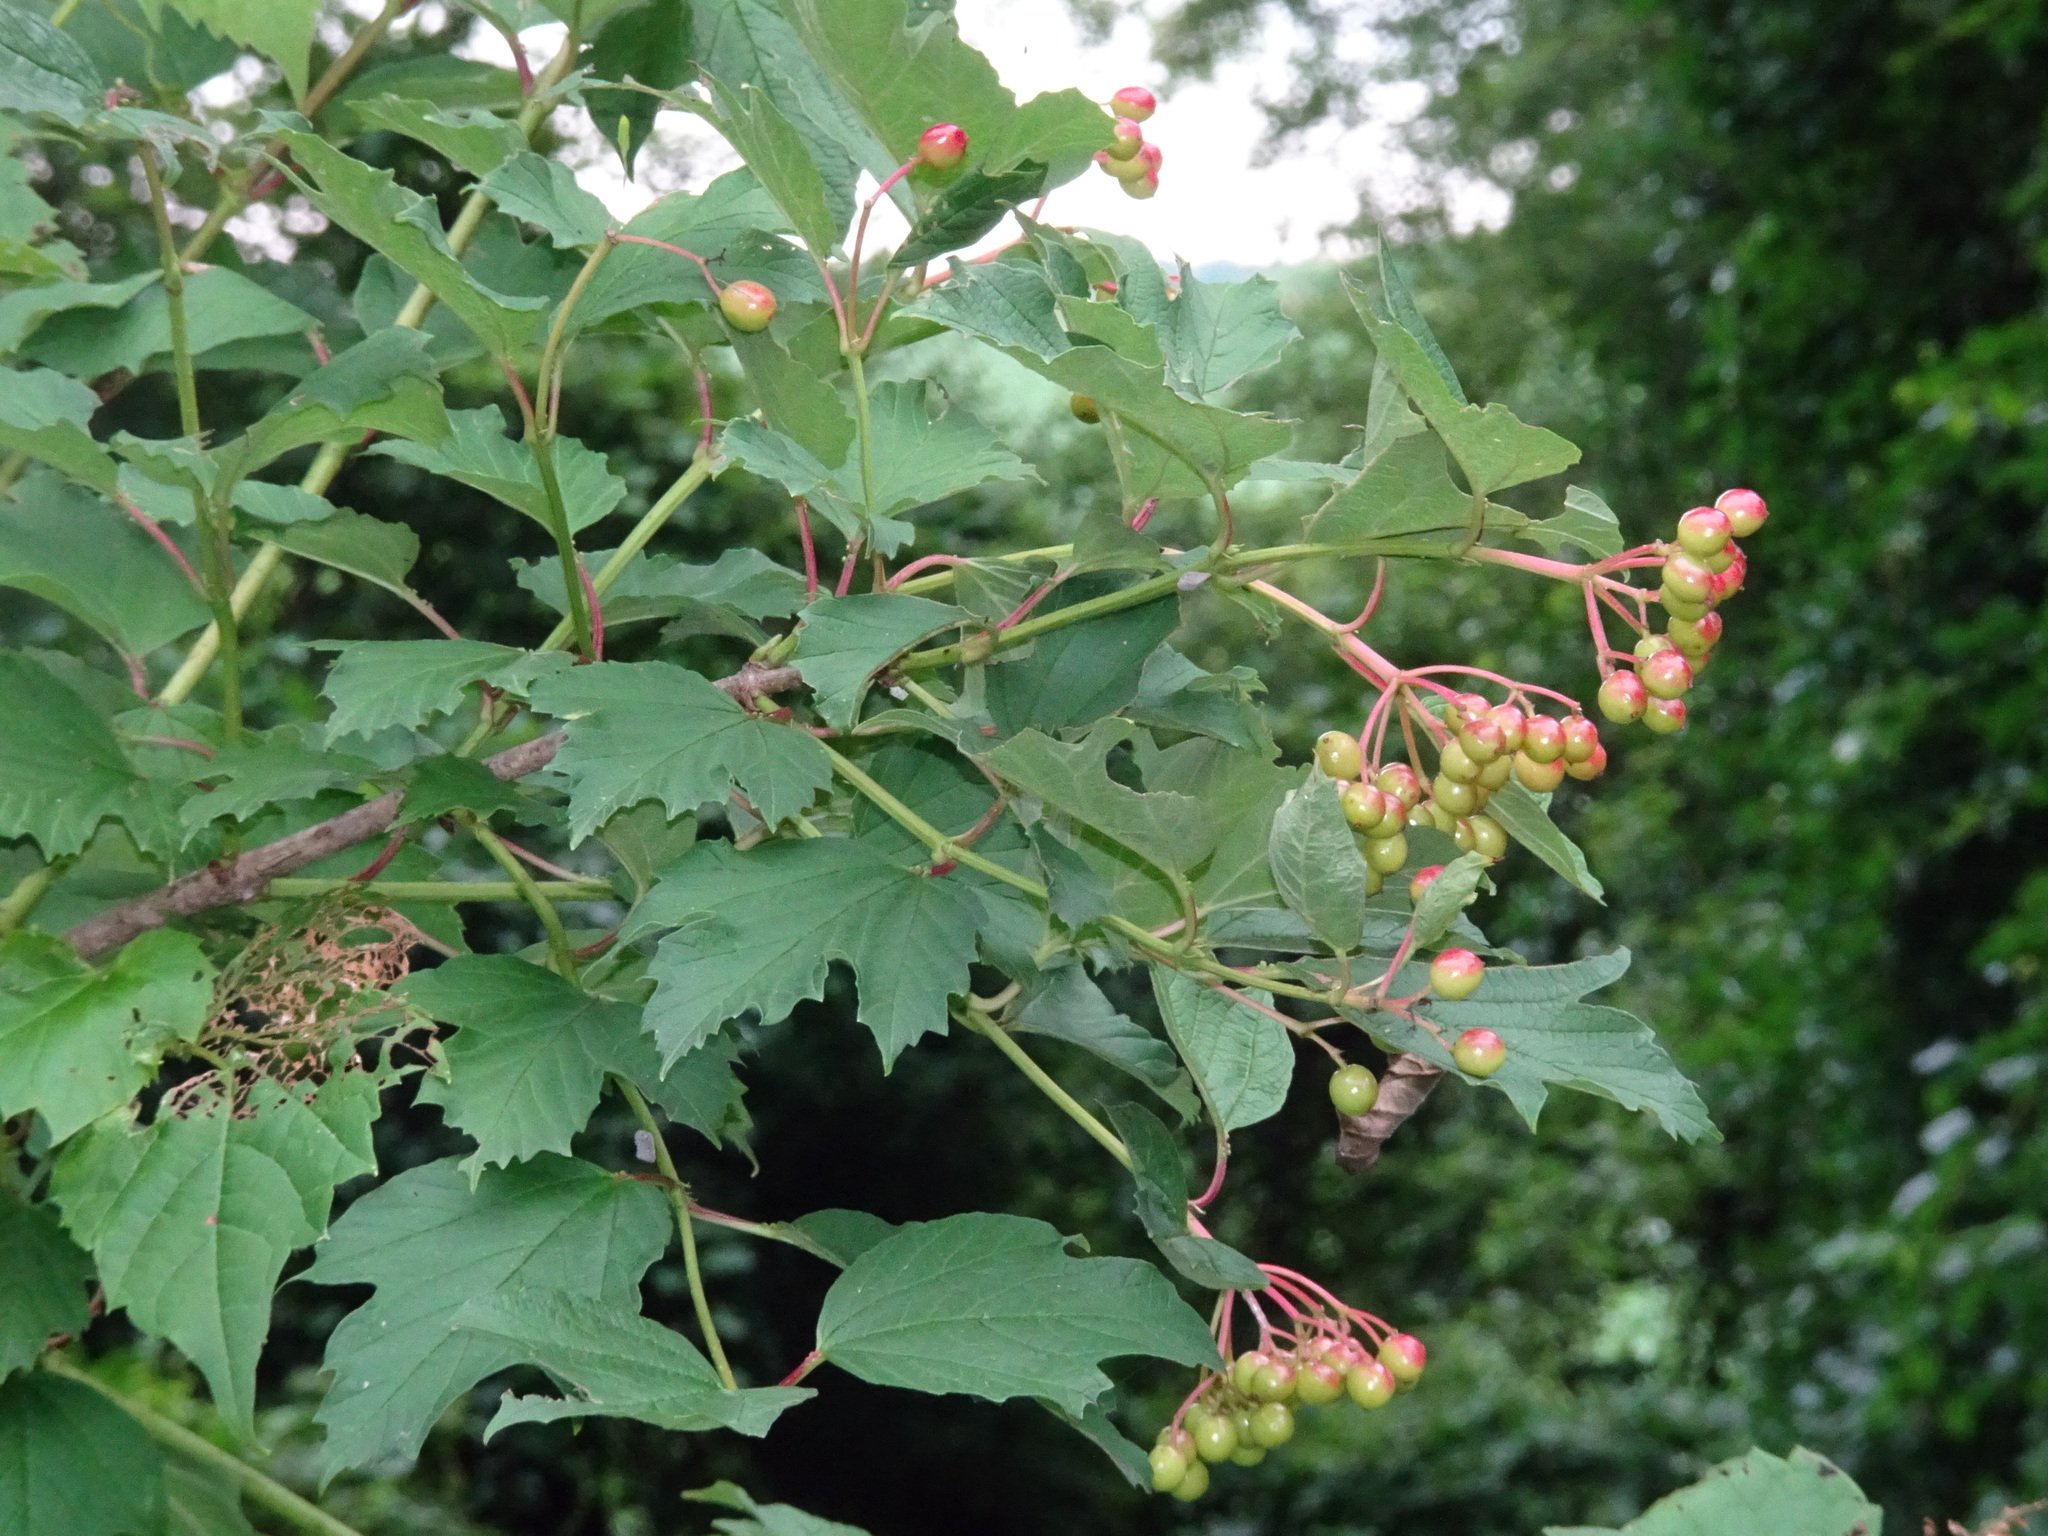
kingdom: Plantae
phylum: Tracheophyta
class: Magnoliopsida
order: Dipsacales
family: Viburnaceae
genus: Viburnum
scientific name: Viburnum opulus
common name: Guelder-rose
